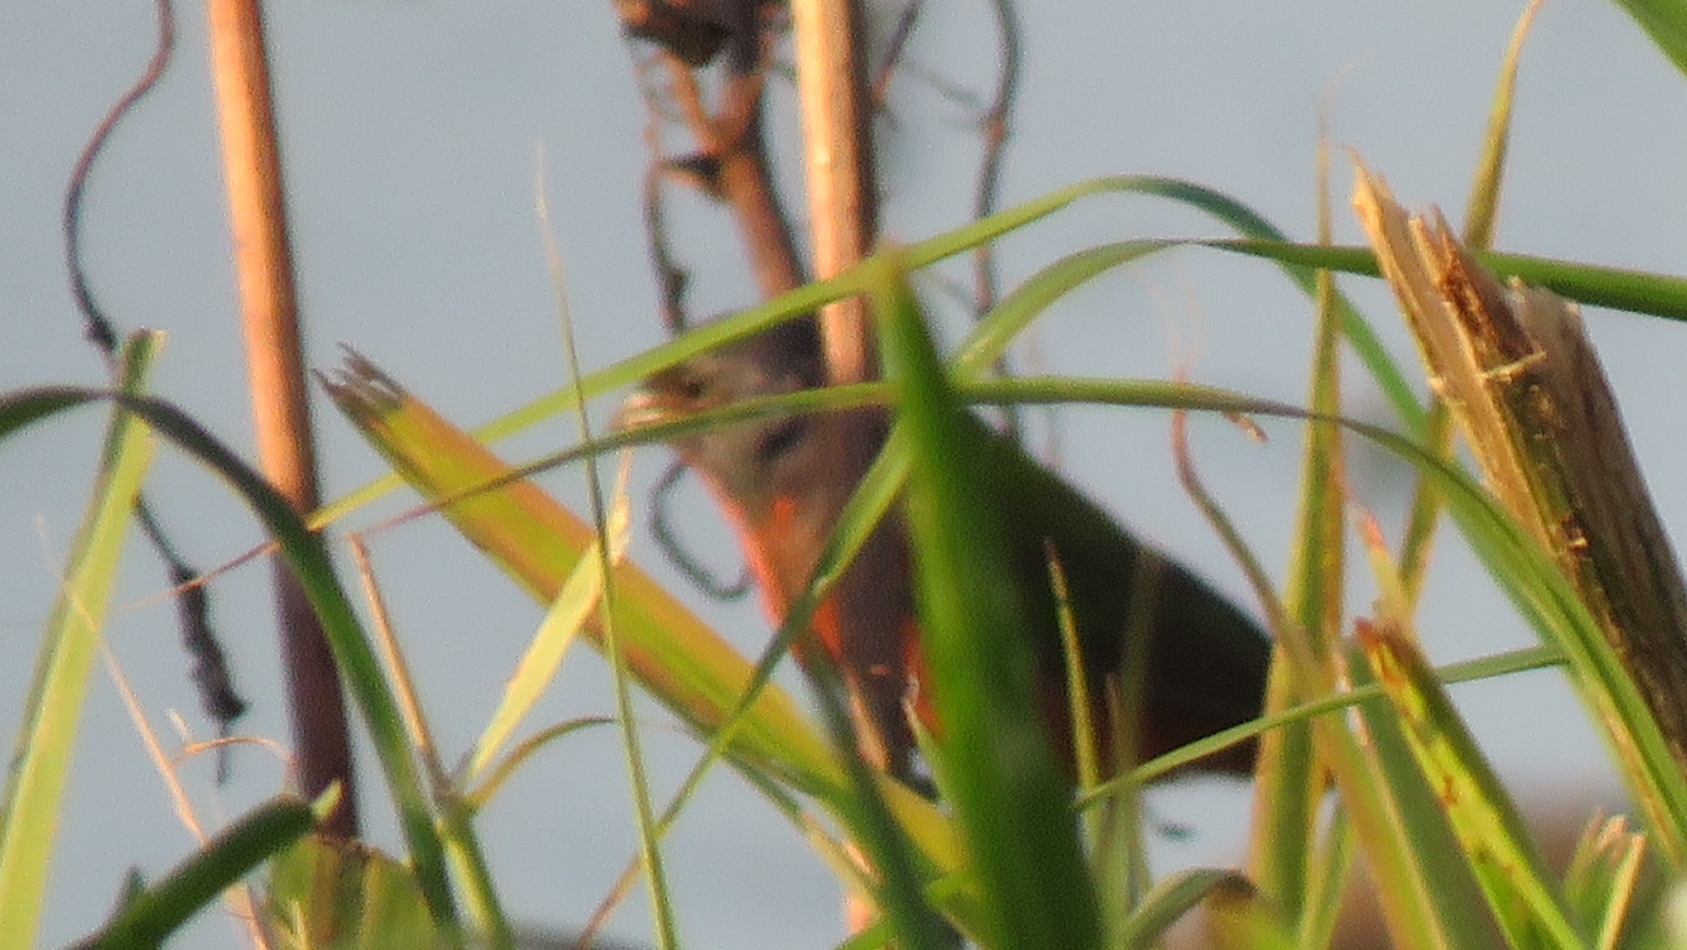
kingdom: Animalia
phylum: Chordata
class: Aves
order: Passeriformes
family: Cardinalidae
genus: Passerina
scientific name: Passerina ciris
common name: Painted bunting
